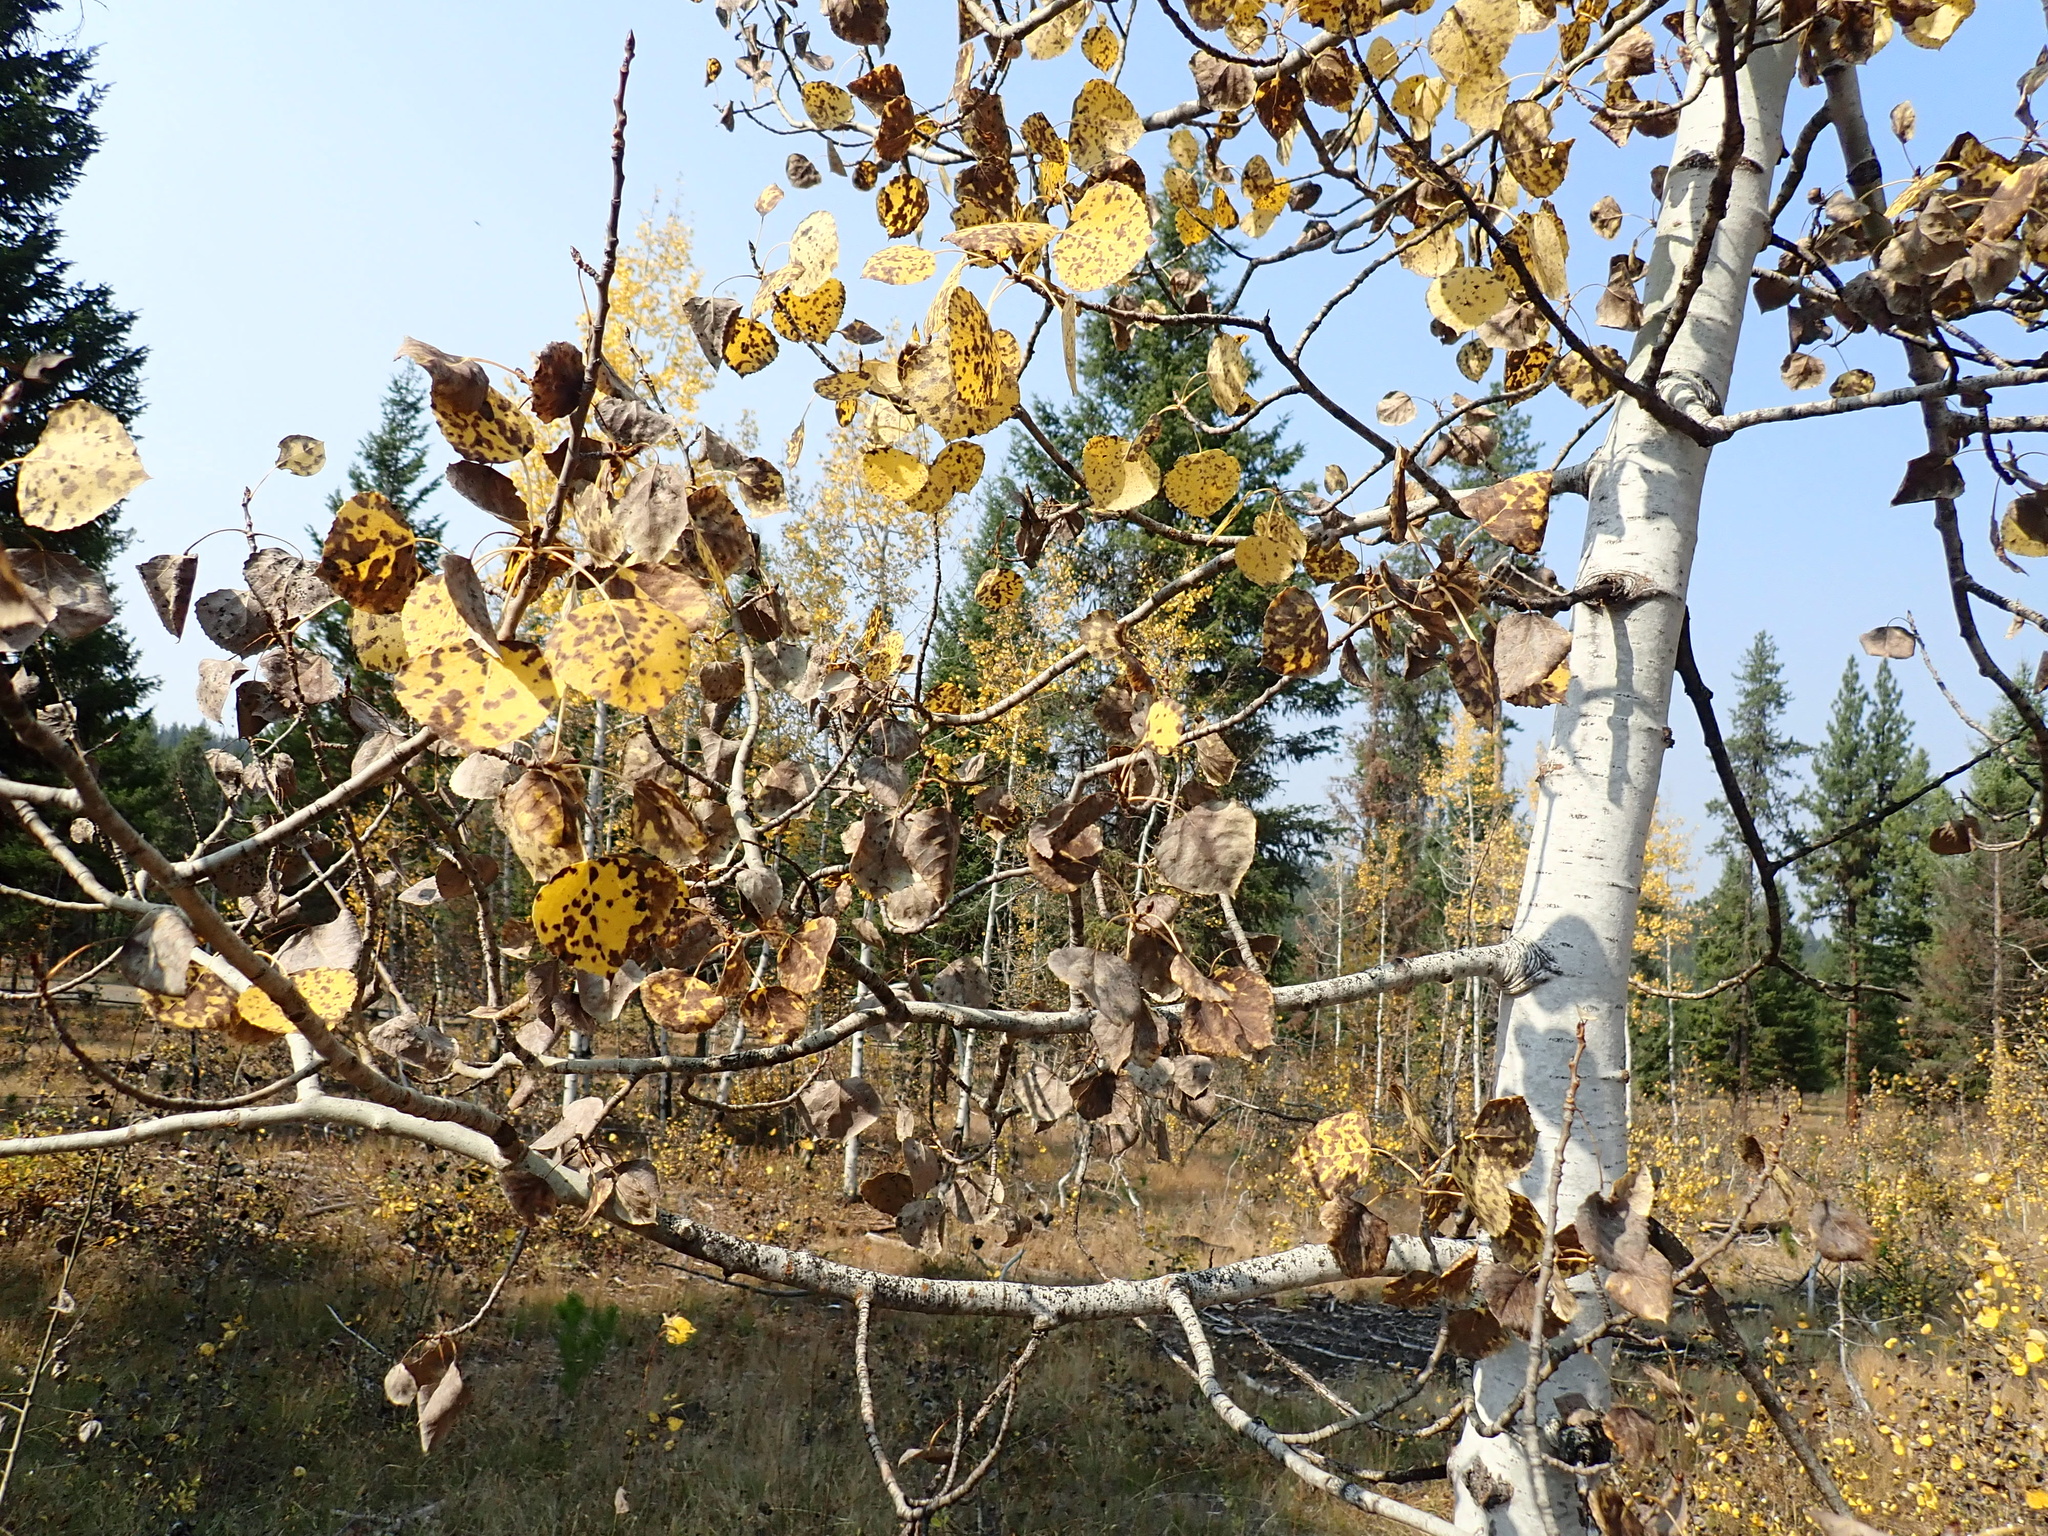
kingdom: Plantae
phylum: Tracheophyta
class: Magnoliopsida
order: Malpighiales
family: Salicaceae
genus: Populus
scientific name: Populus tremuloides
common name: Quaking aspen
